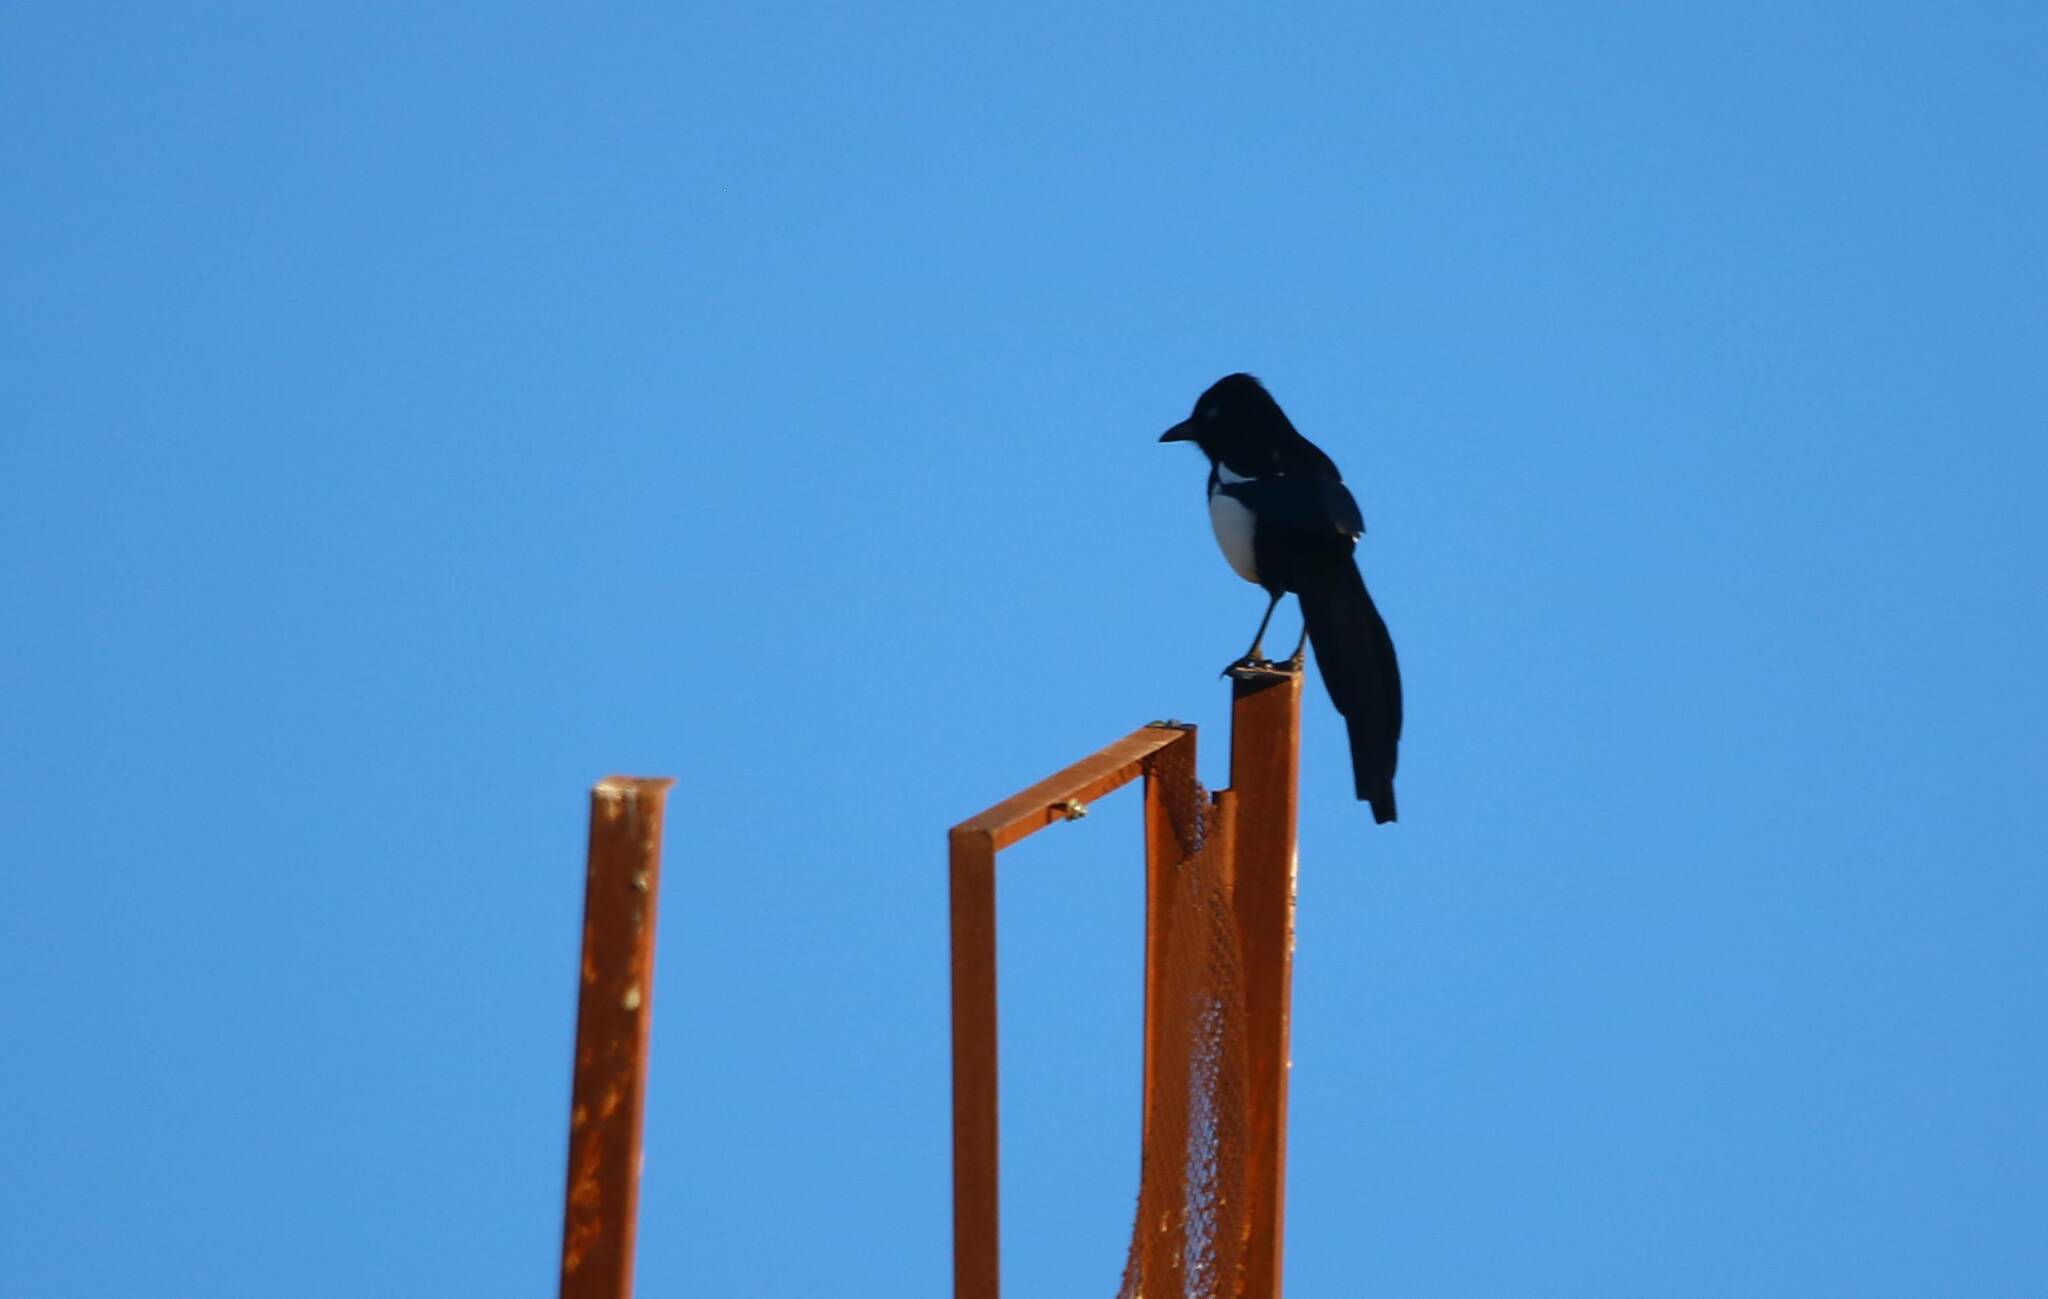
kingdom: Animalia
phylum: Chordata
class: Aves
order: Passeriformes
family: Corvidae
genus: Pica
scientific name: Pica mauritanica
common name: Maghreb magpie
